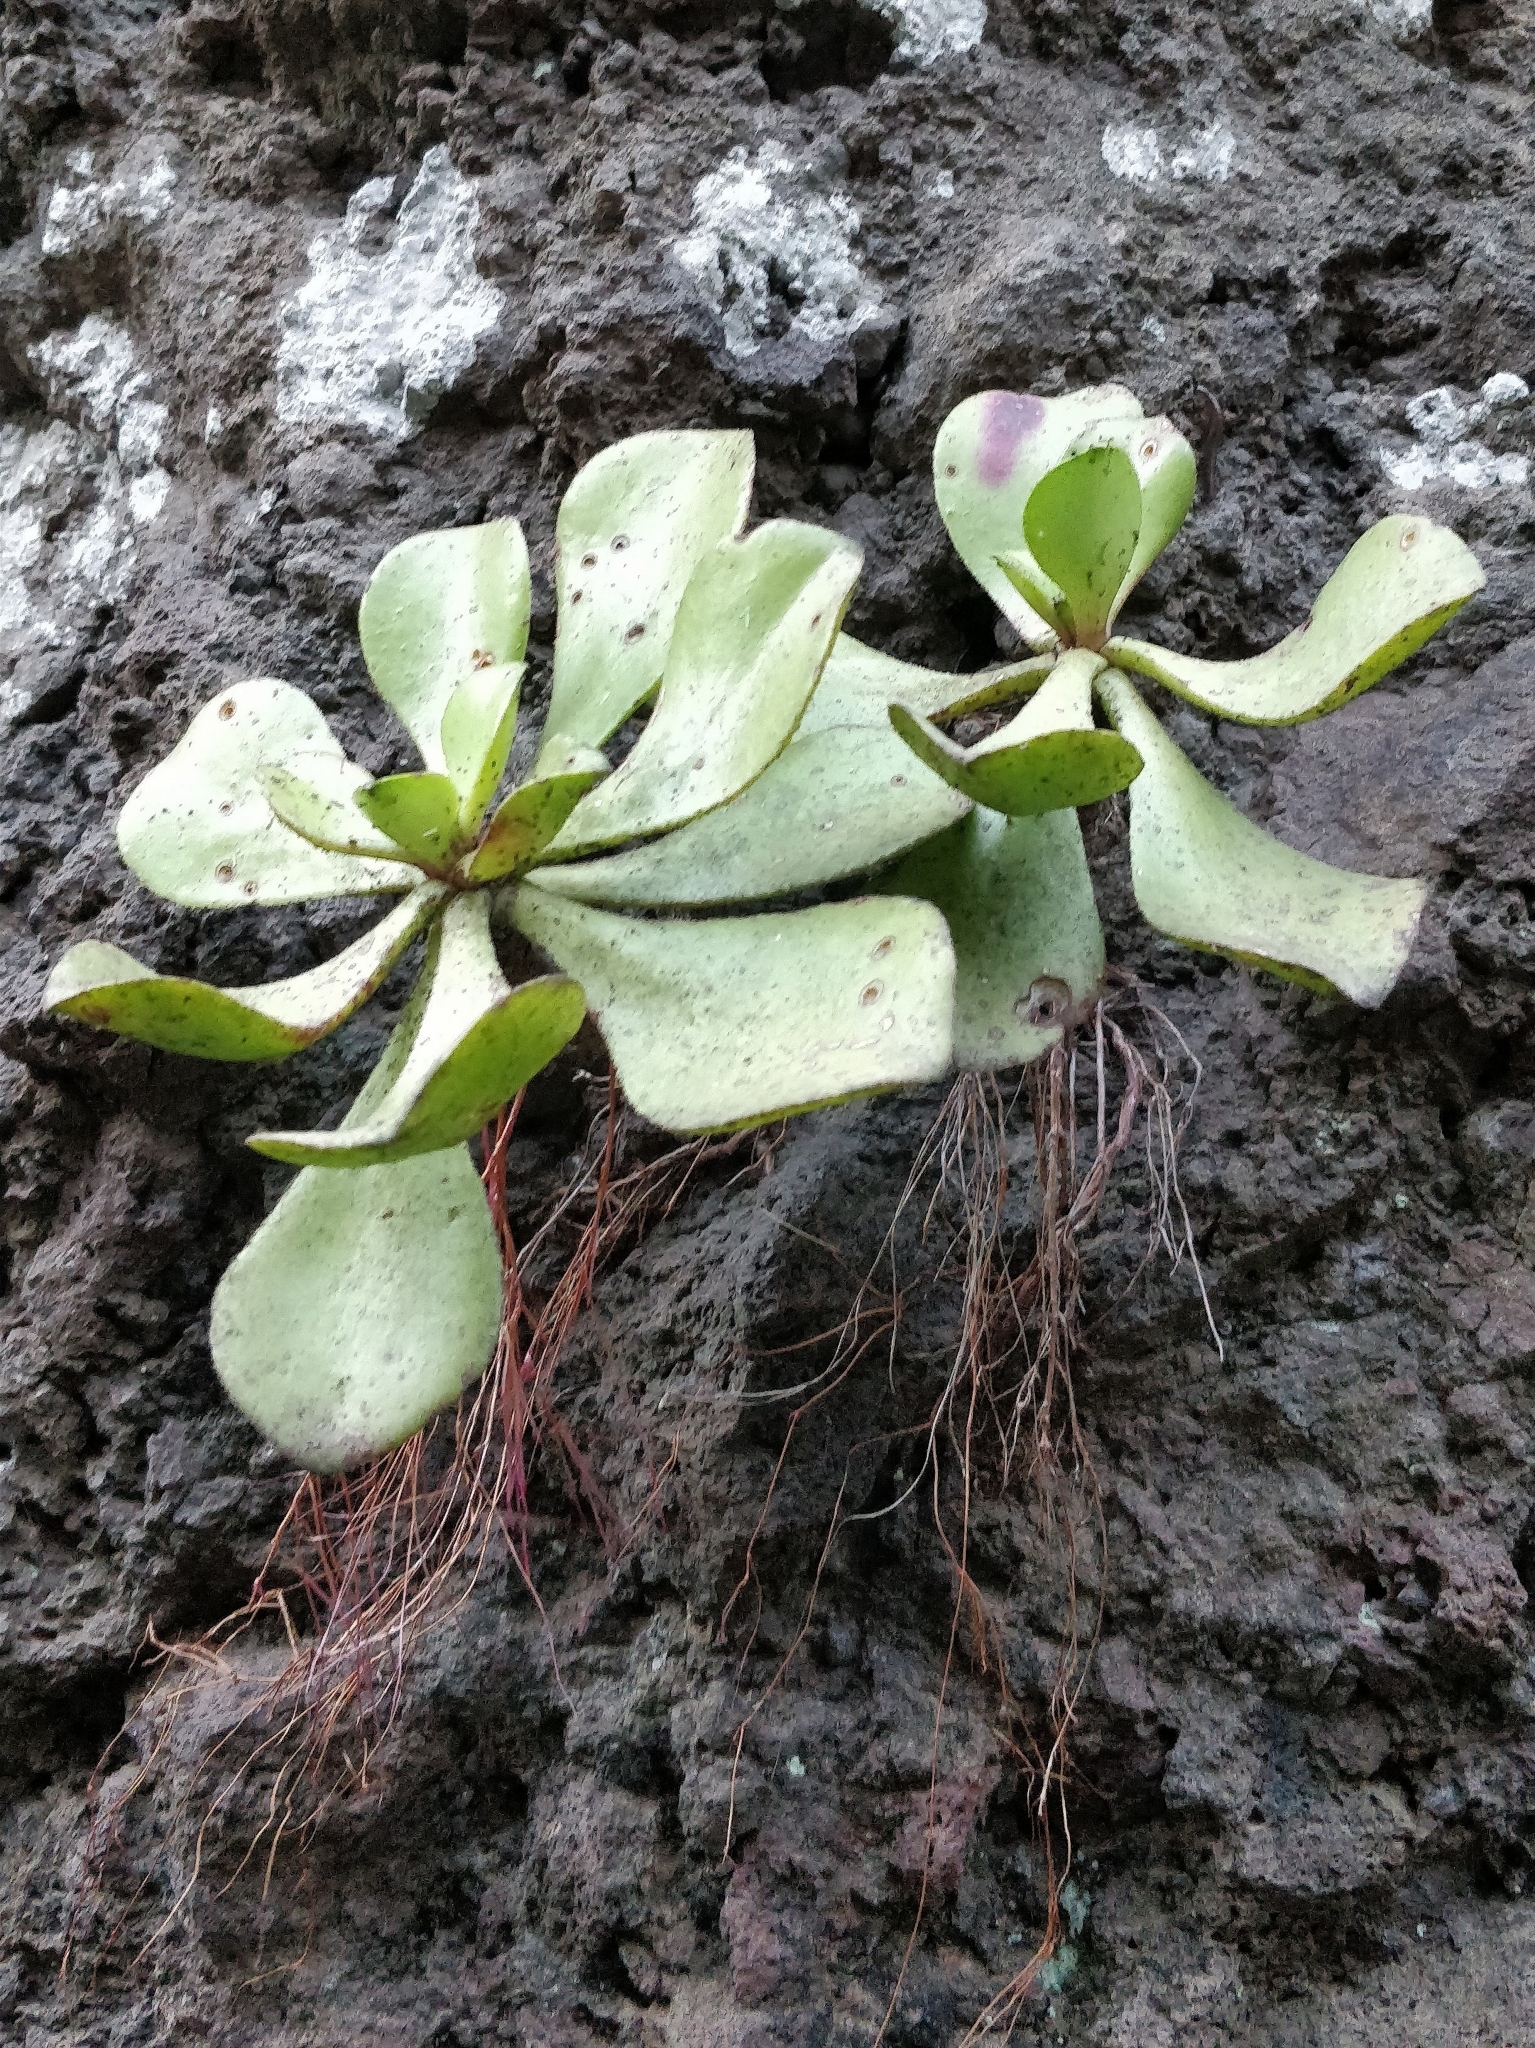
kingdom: Plantae
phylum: Tracheophyta
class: Magnoliopsida
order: Saxifragales
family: Crassulaceae
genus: Aeonium
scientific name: Aeonium glutinosum
